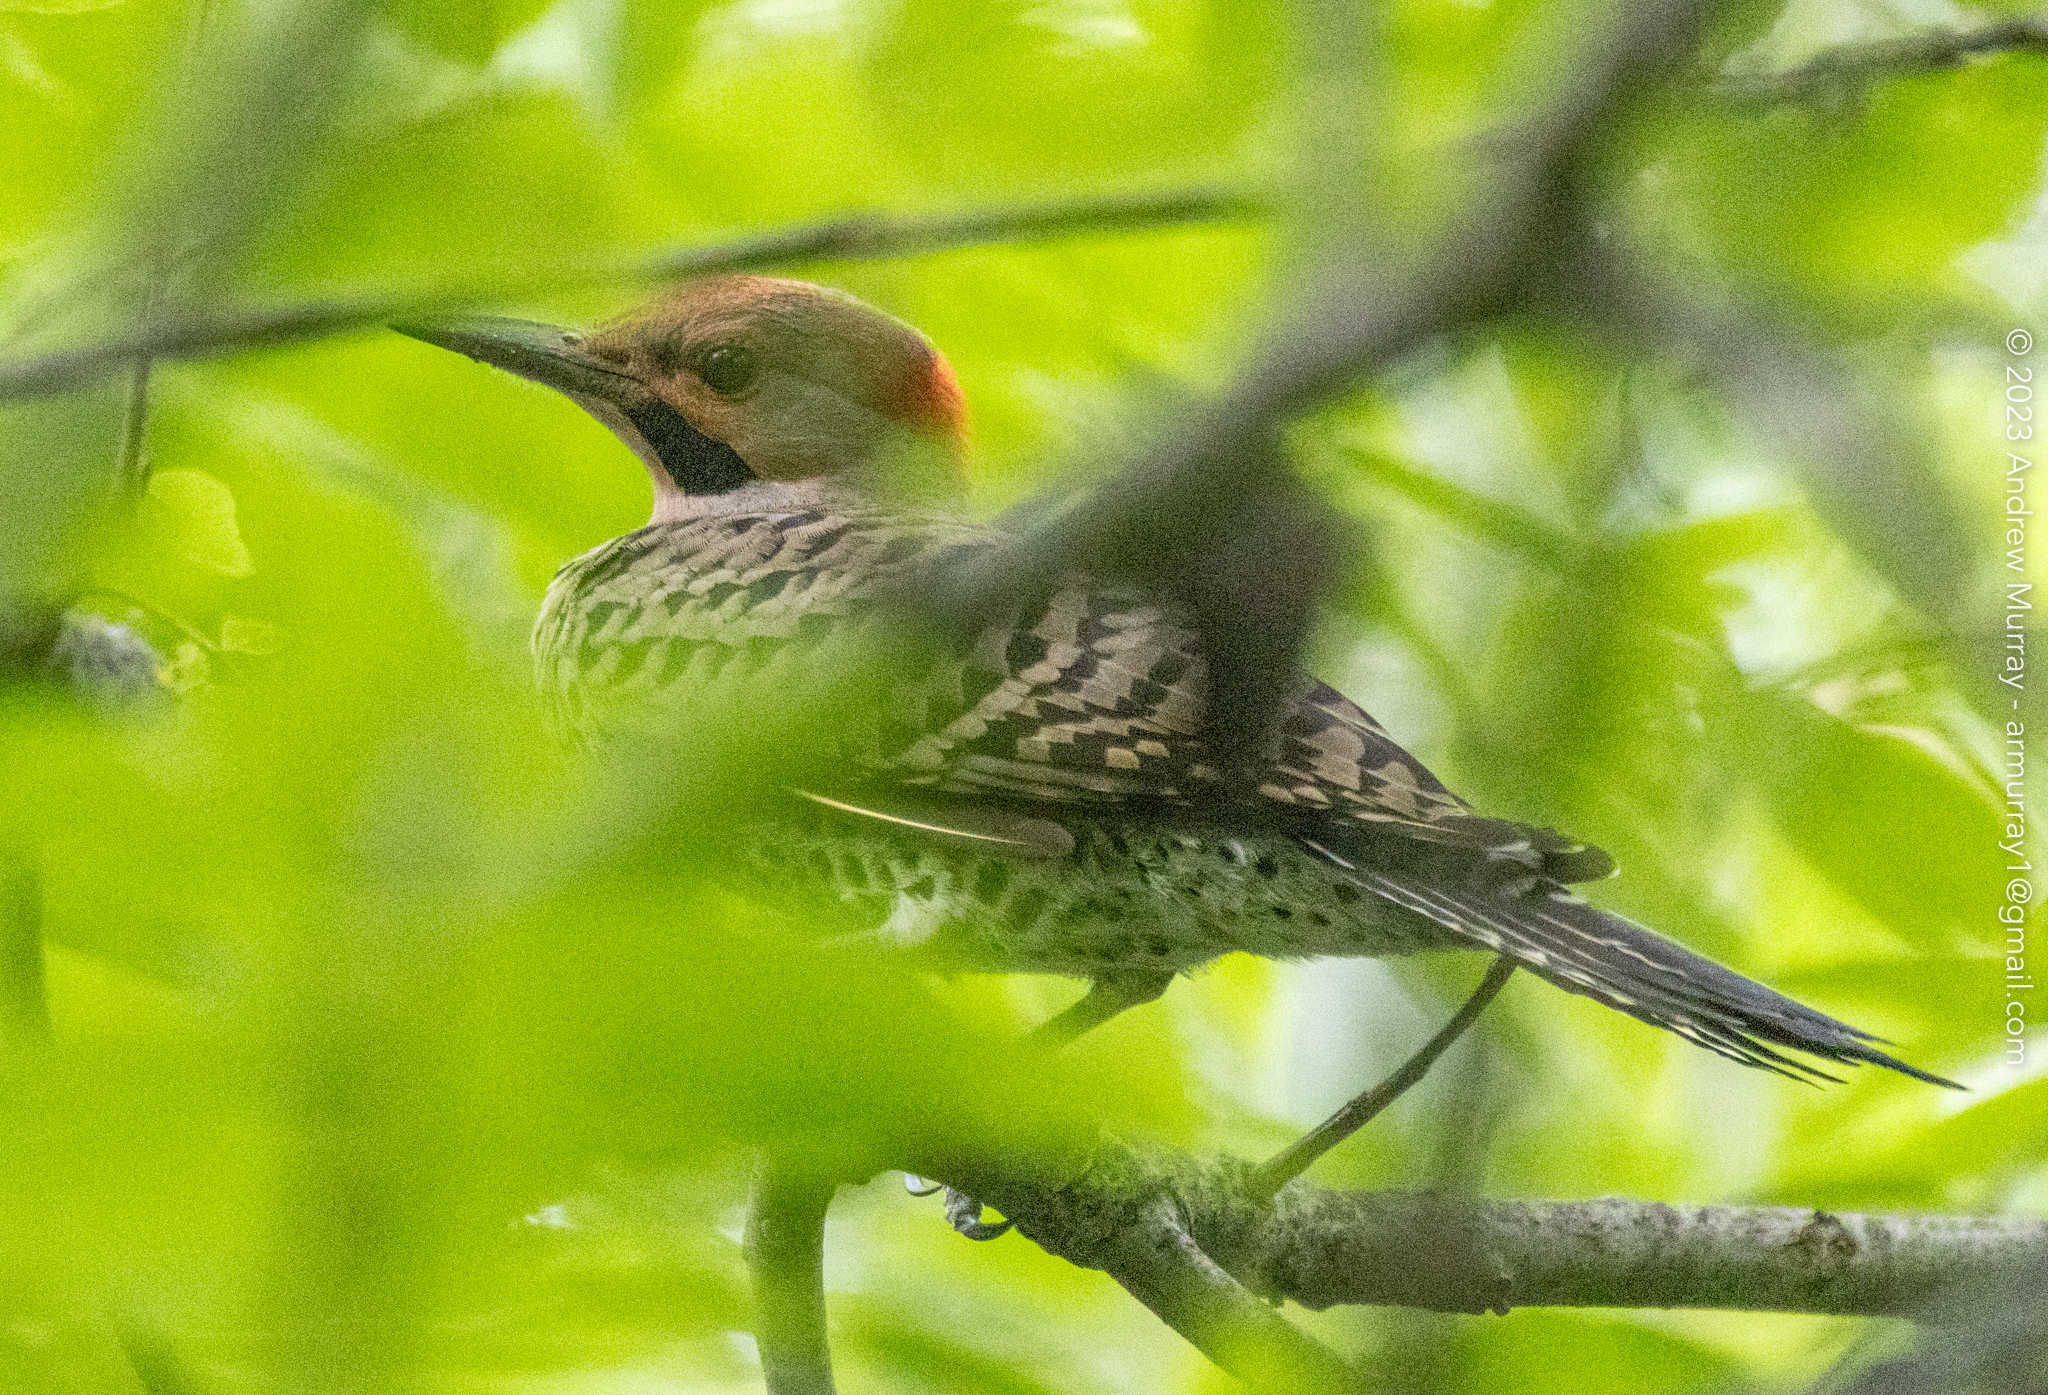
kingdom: Animalia
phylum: Chordata
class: Aves
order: Piciformes
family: Picidae
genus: Colaptes
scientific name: Colaptes auratus
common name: Northern flicker
